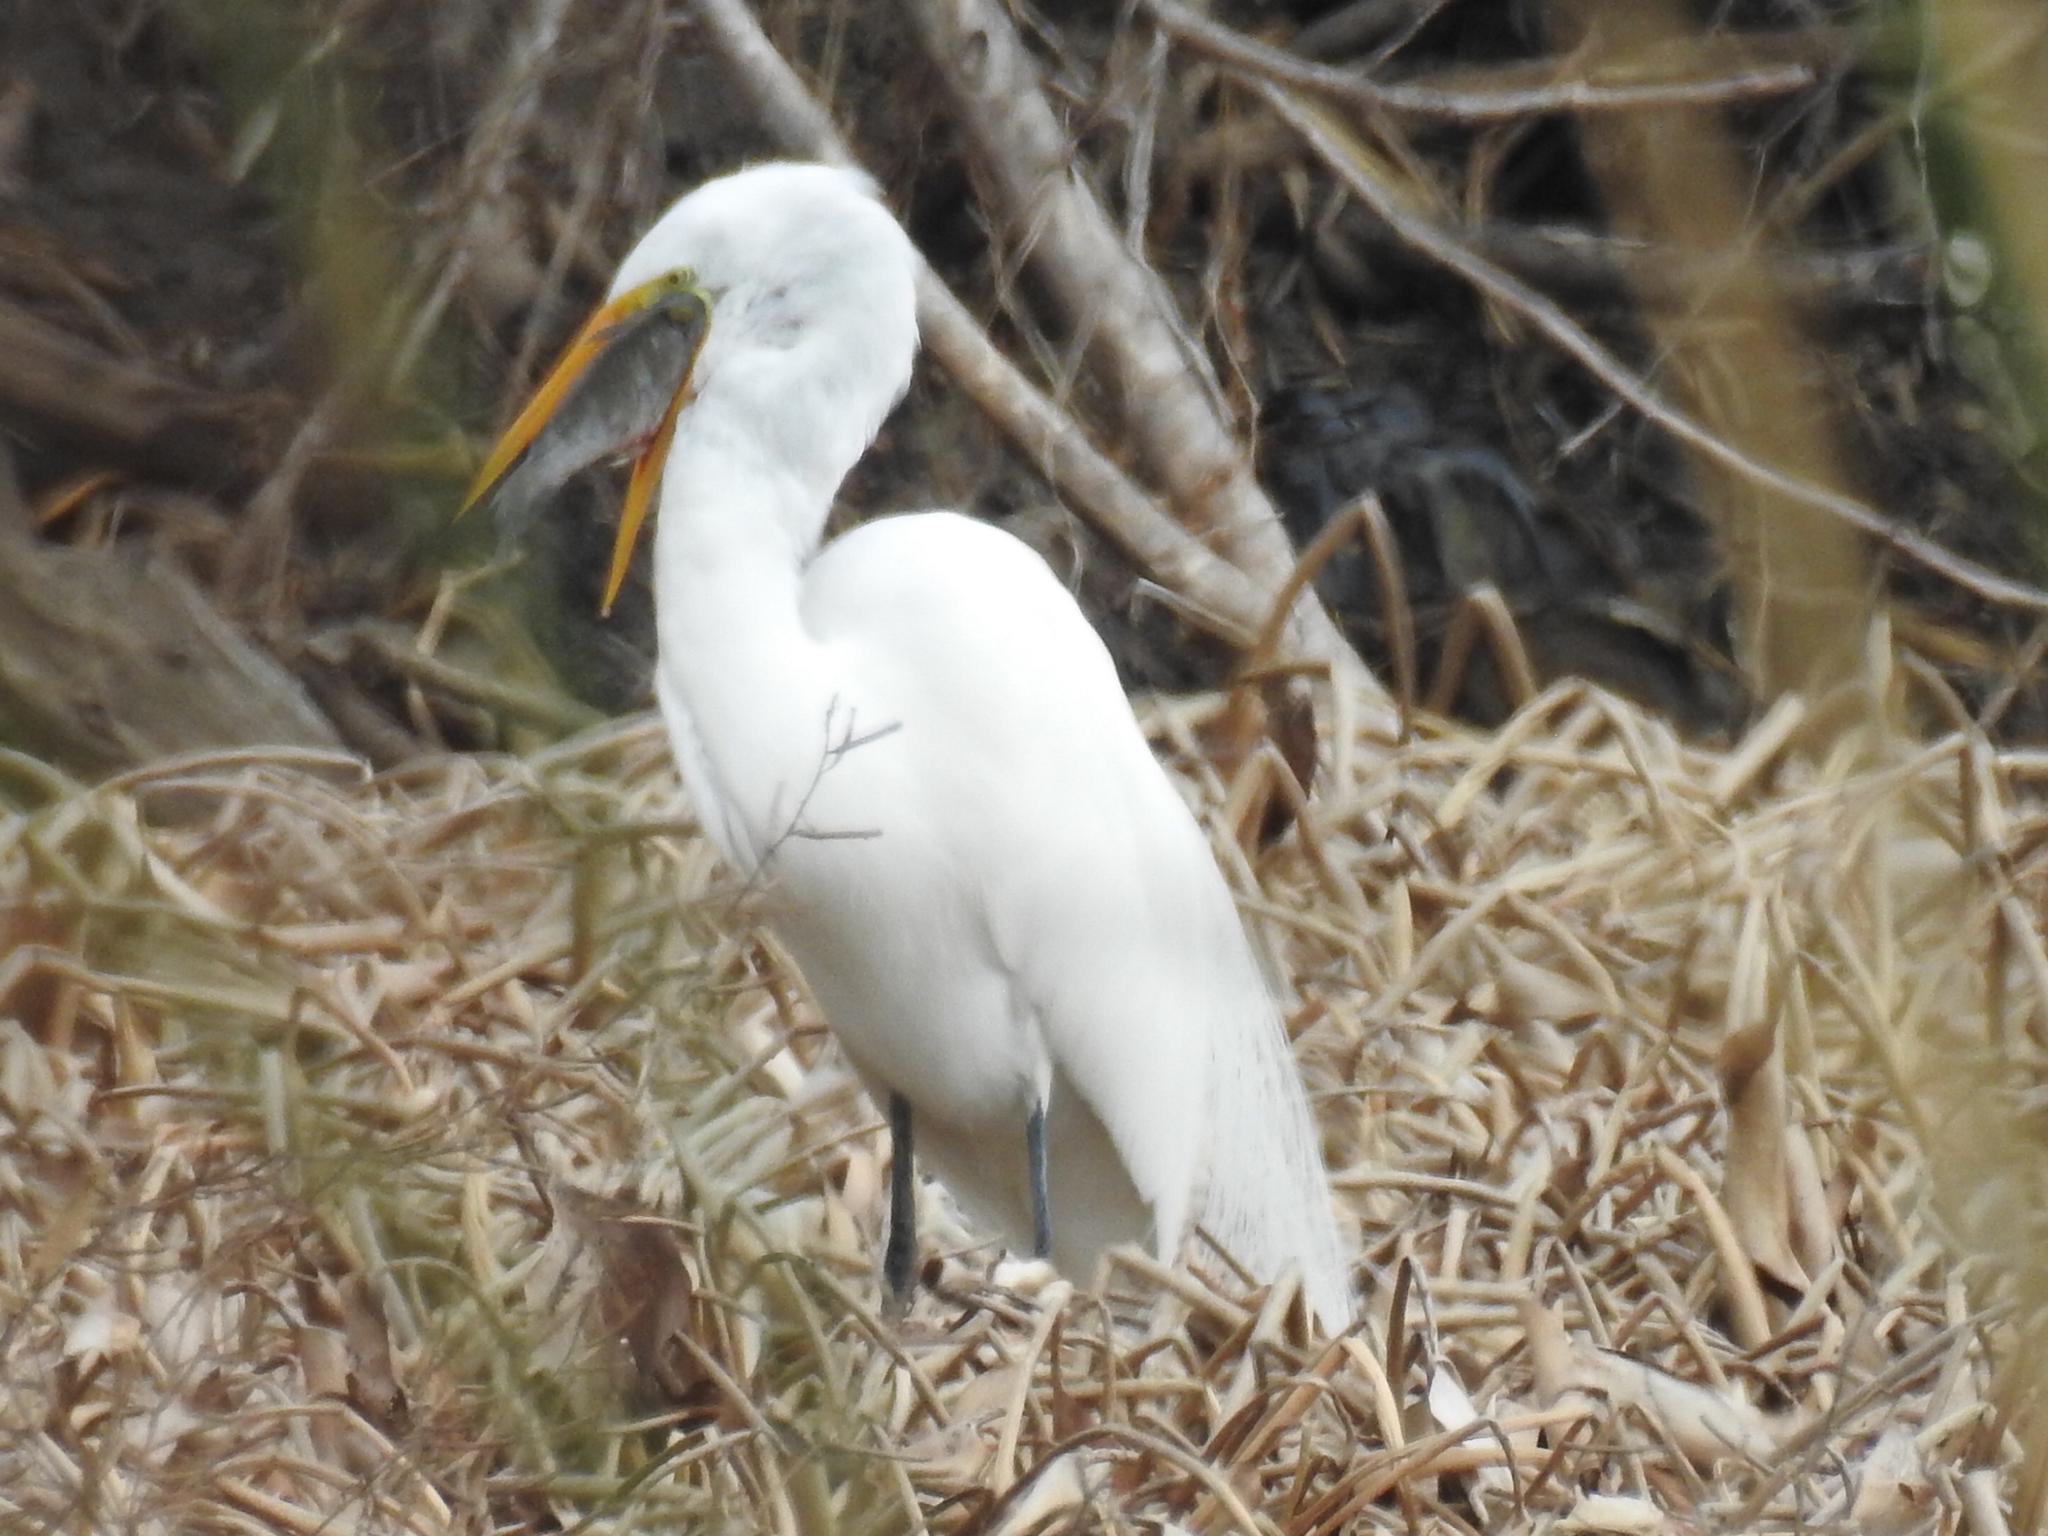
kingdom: Animalia
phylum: Chordata
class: Aves
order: Pelecaniformes
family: Ardeidae
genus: Ardea
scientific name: Ardea alba
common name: Great egret
